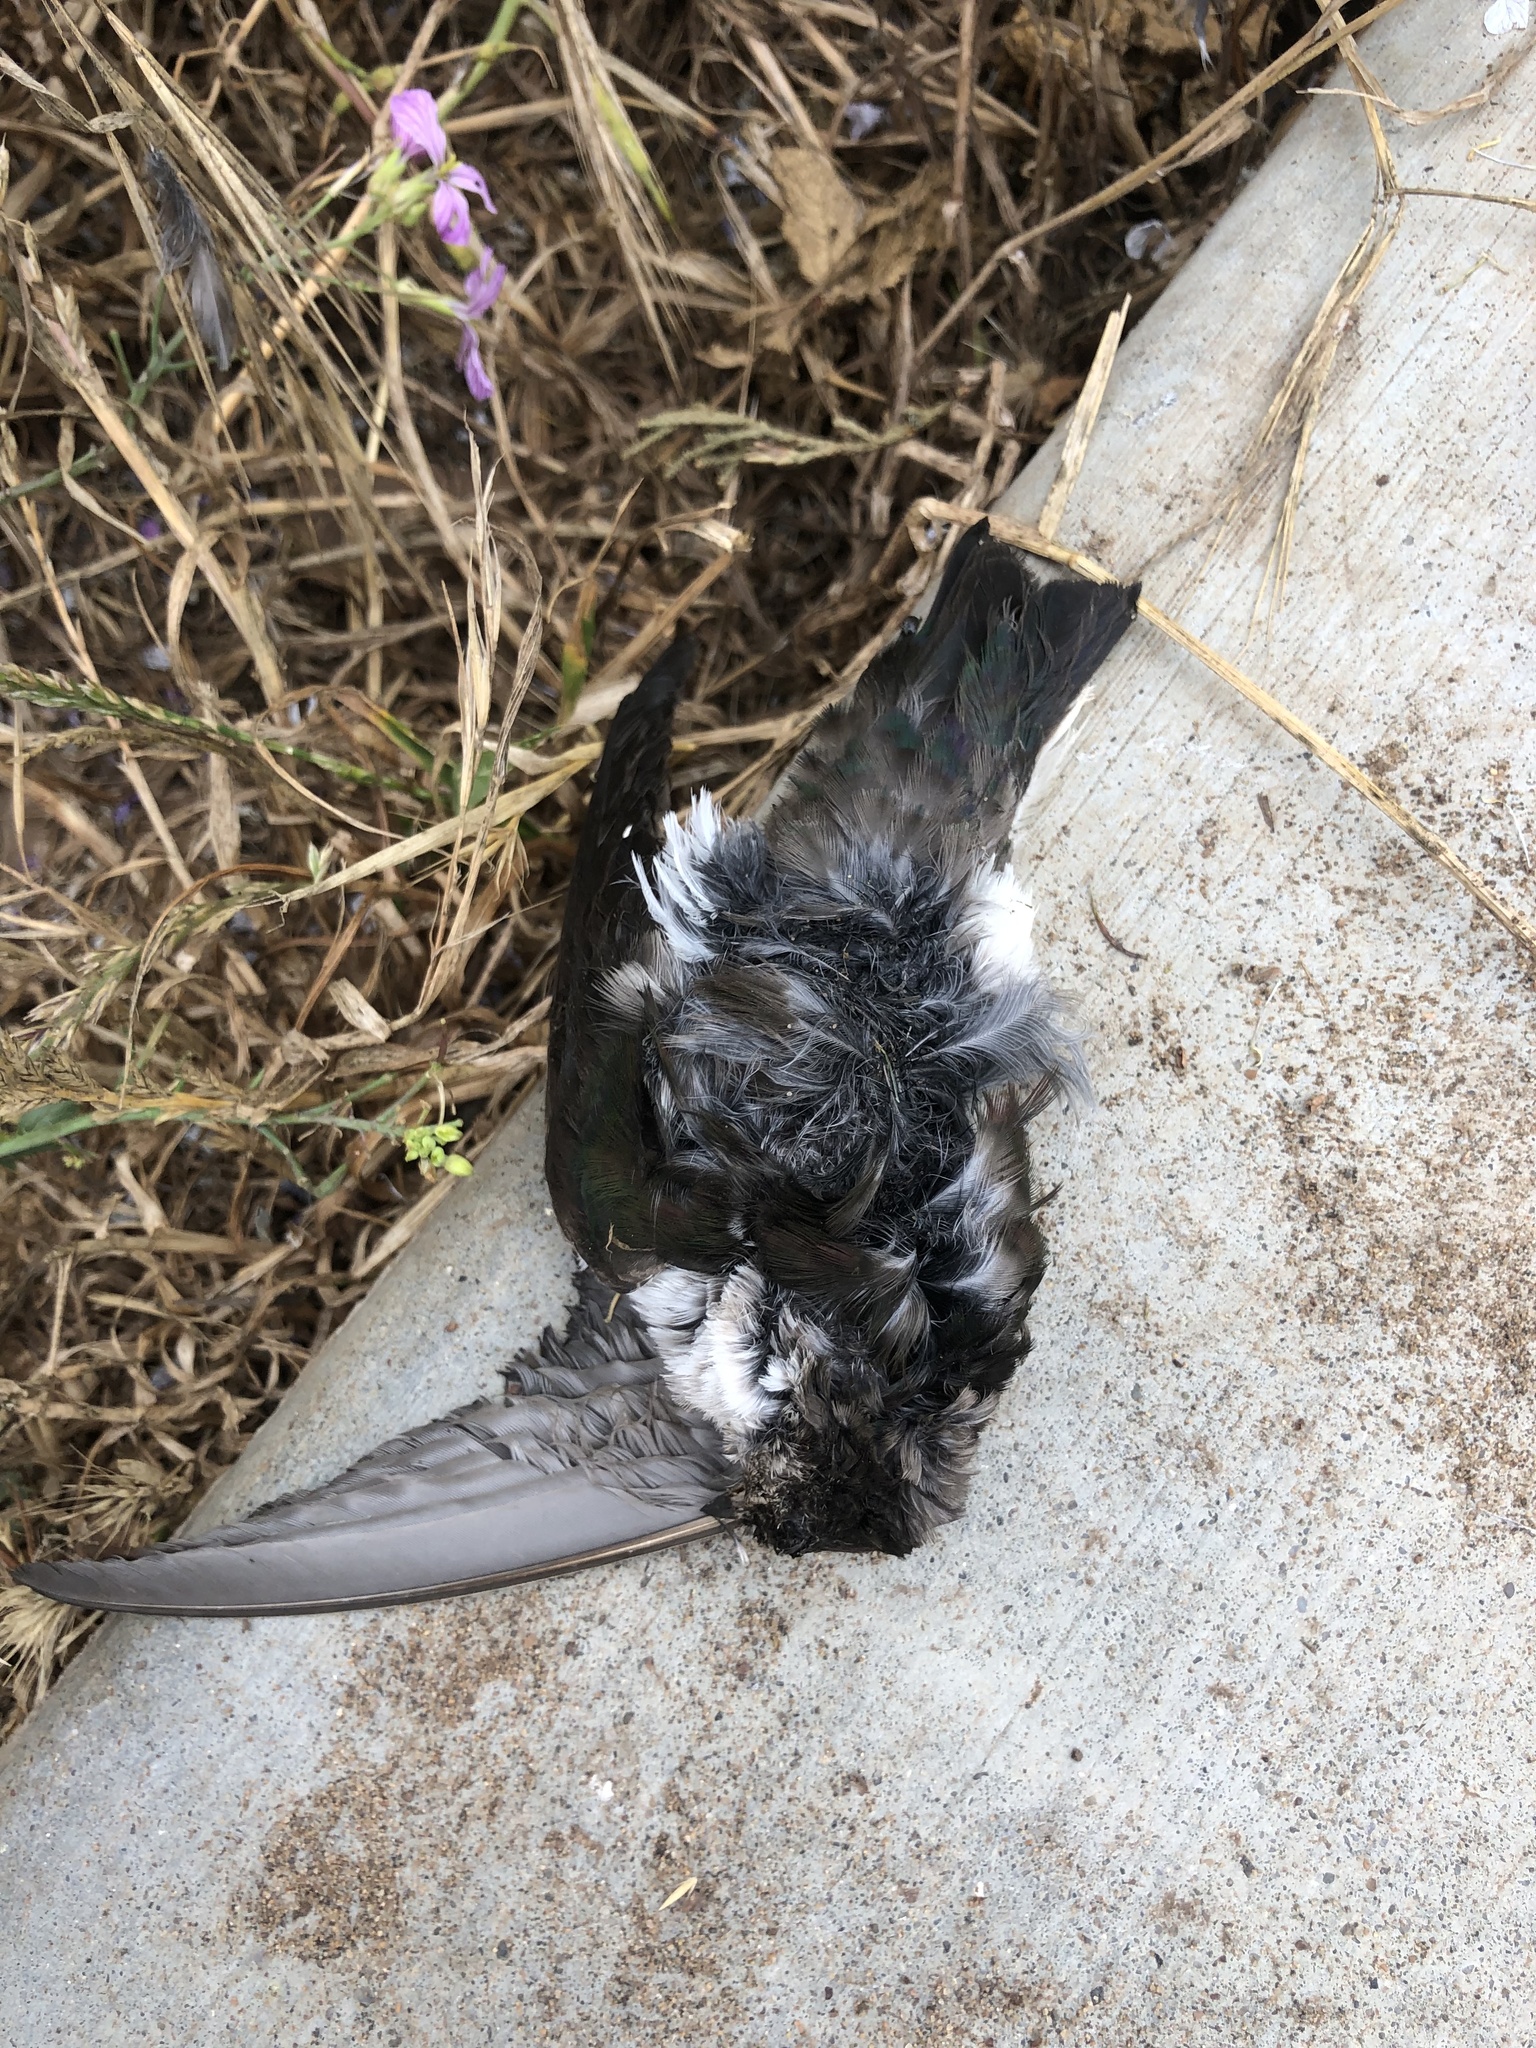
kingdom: Animalia
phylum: Chordata
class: Aves
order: Passeriformes
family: Hirundinidae
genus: Tachycineta
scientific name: Tachycineta thalassina
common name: Violet-green swallow
